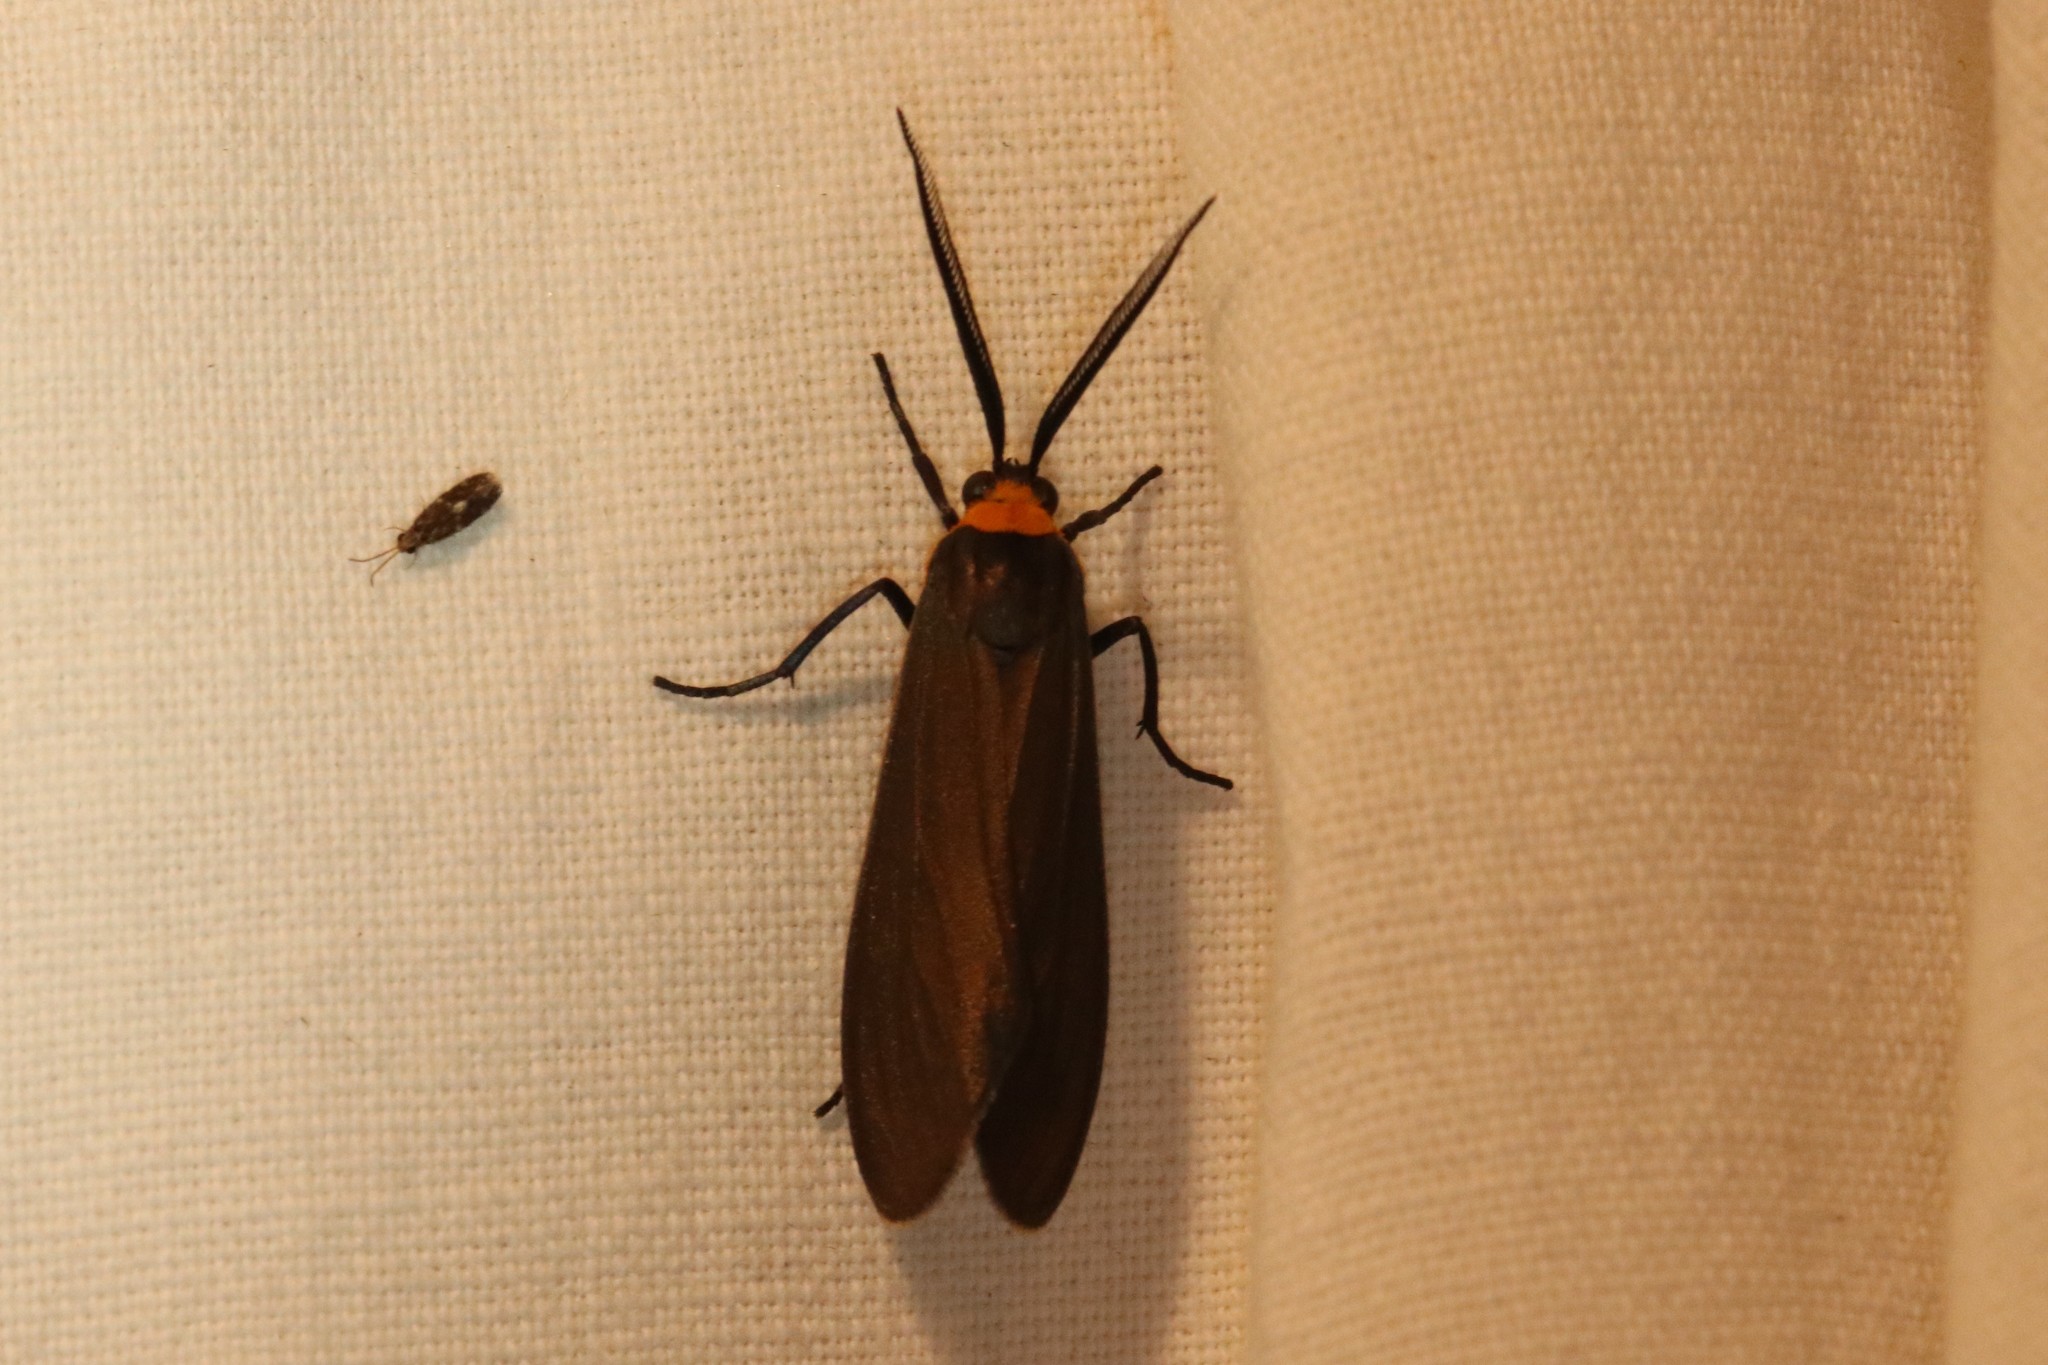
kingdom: Animalia
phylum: Arthropoda
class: Insecta
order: Lepidoptera
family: Erebidae
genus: Cisseps
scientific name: Cisseps fulvicollis
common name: Yellow-collared scape moth
